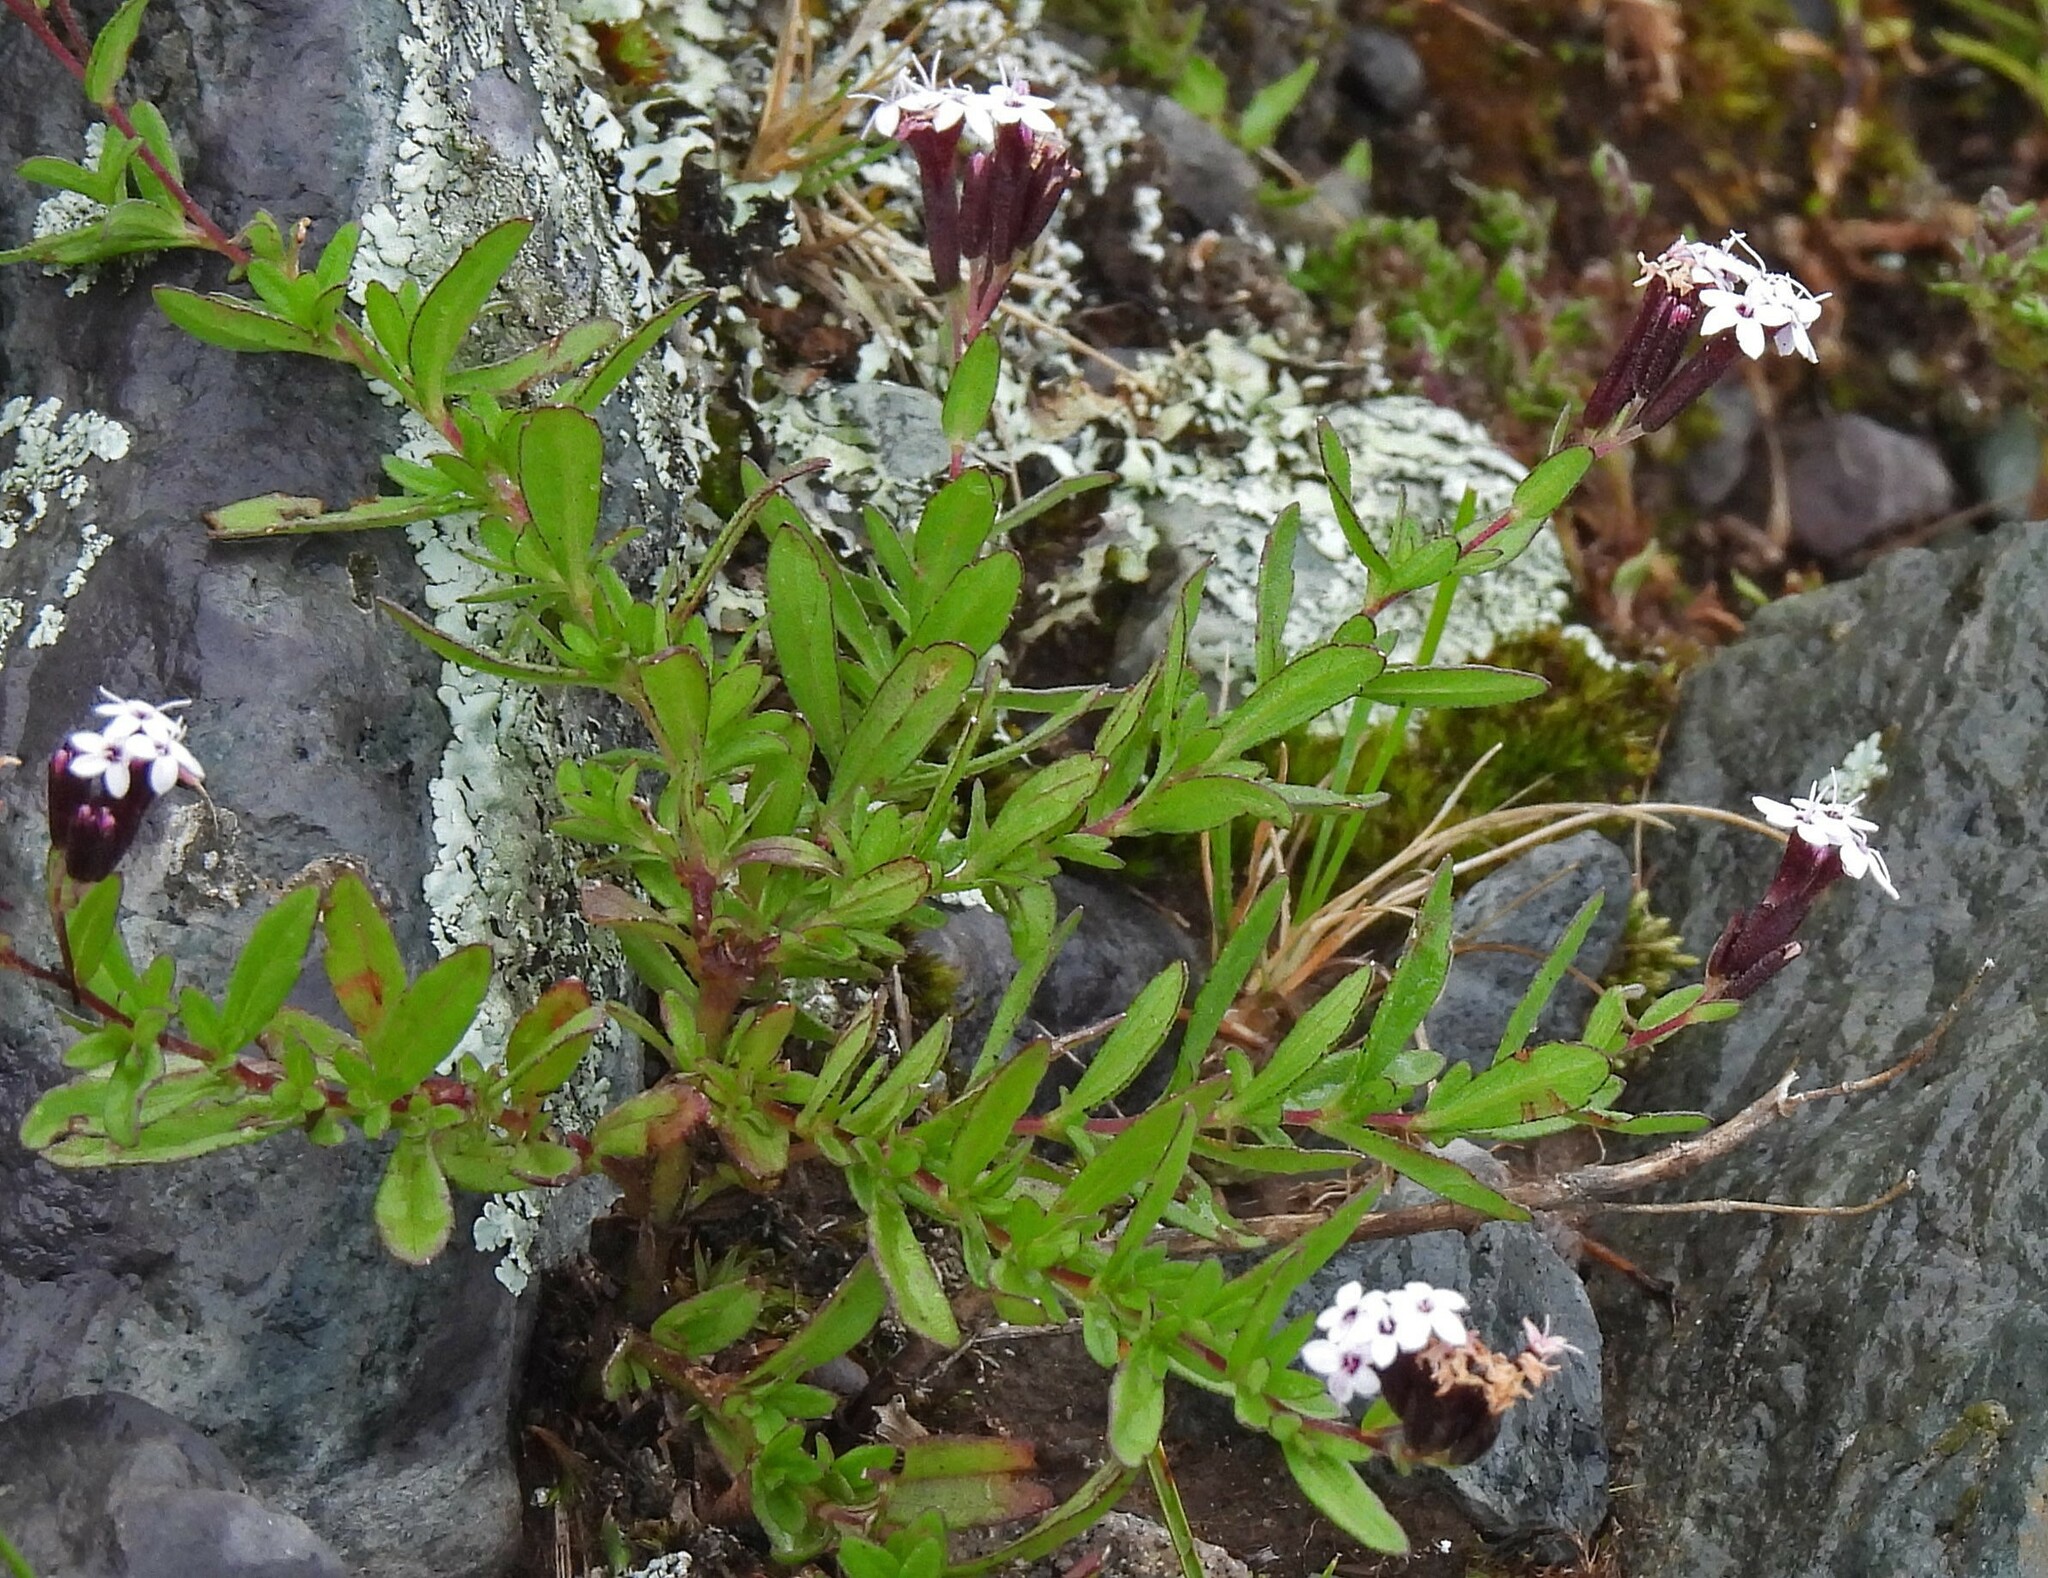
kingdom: Plantae
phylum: Tracheophyta
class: Magnoliopsida
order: Asterales
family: Asteraceae
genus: Stevia
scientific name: Stevia breviaristata
